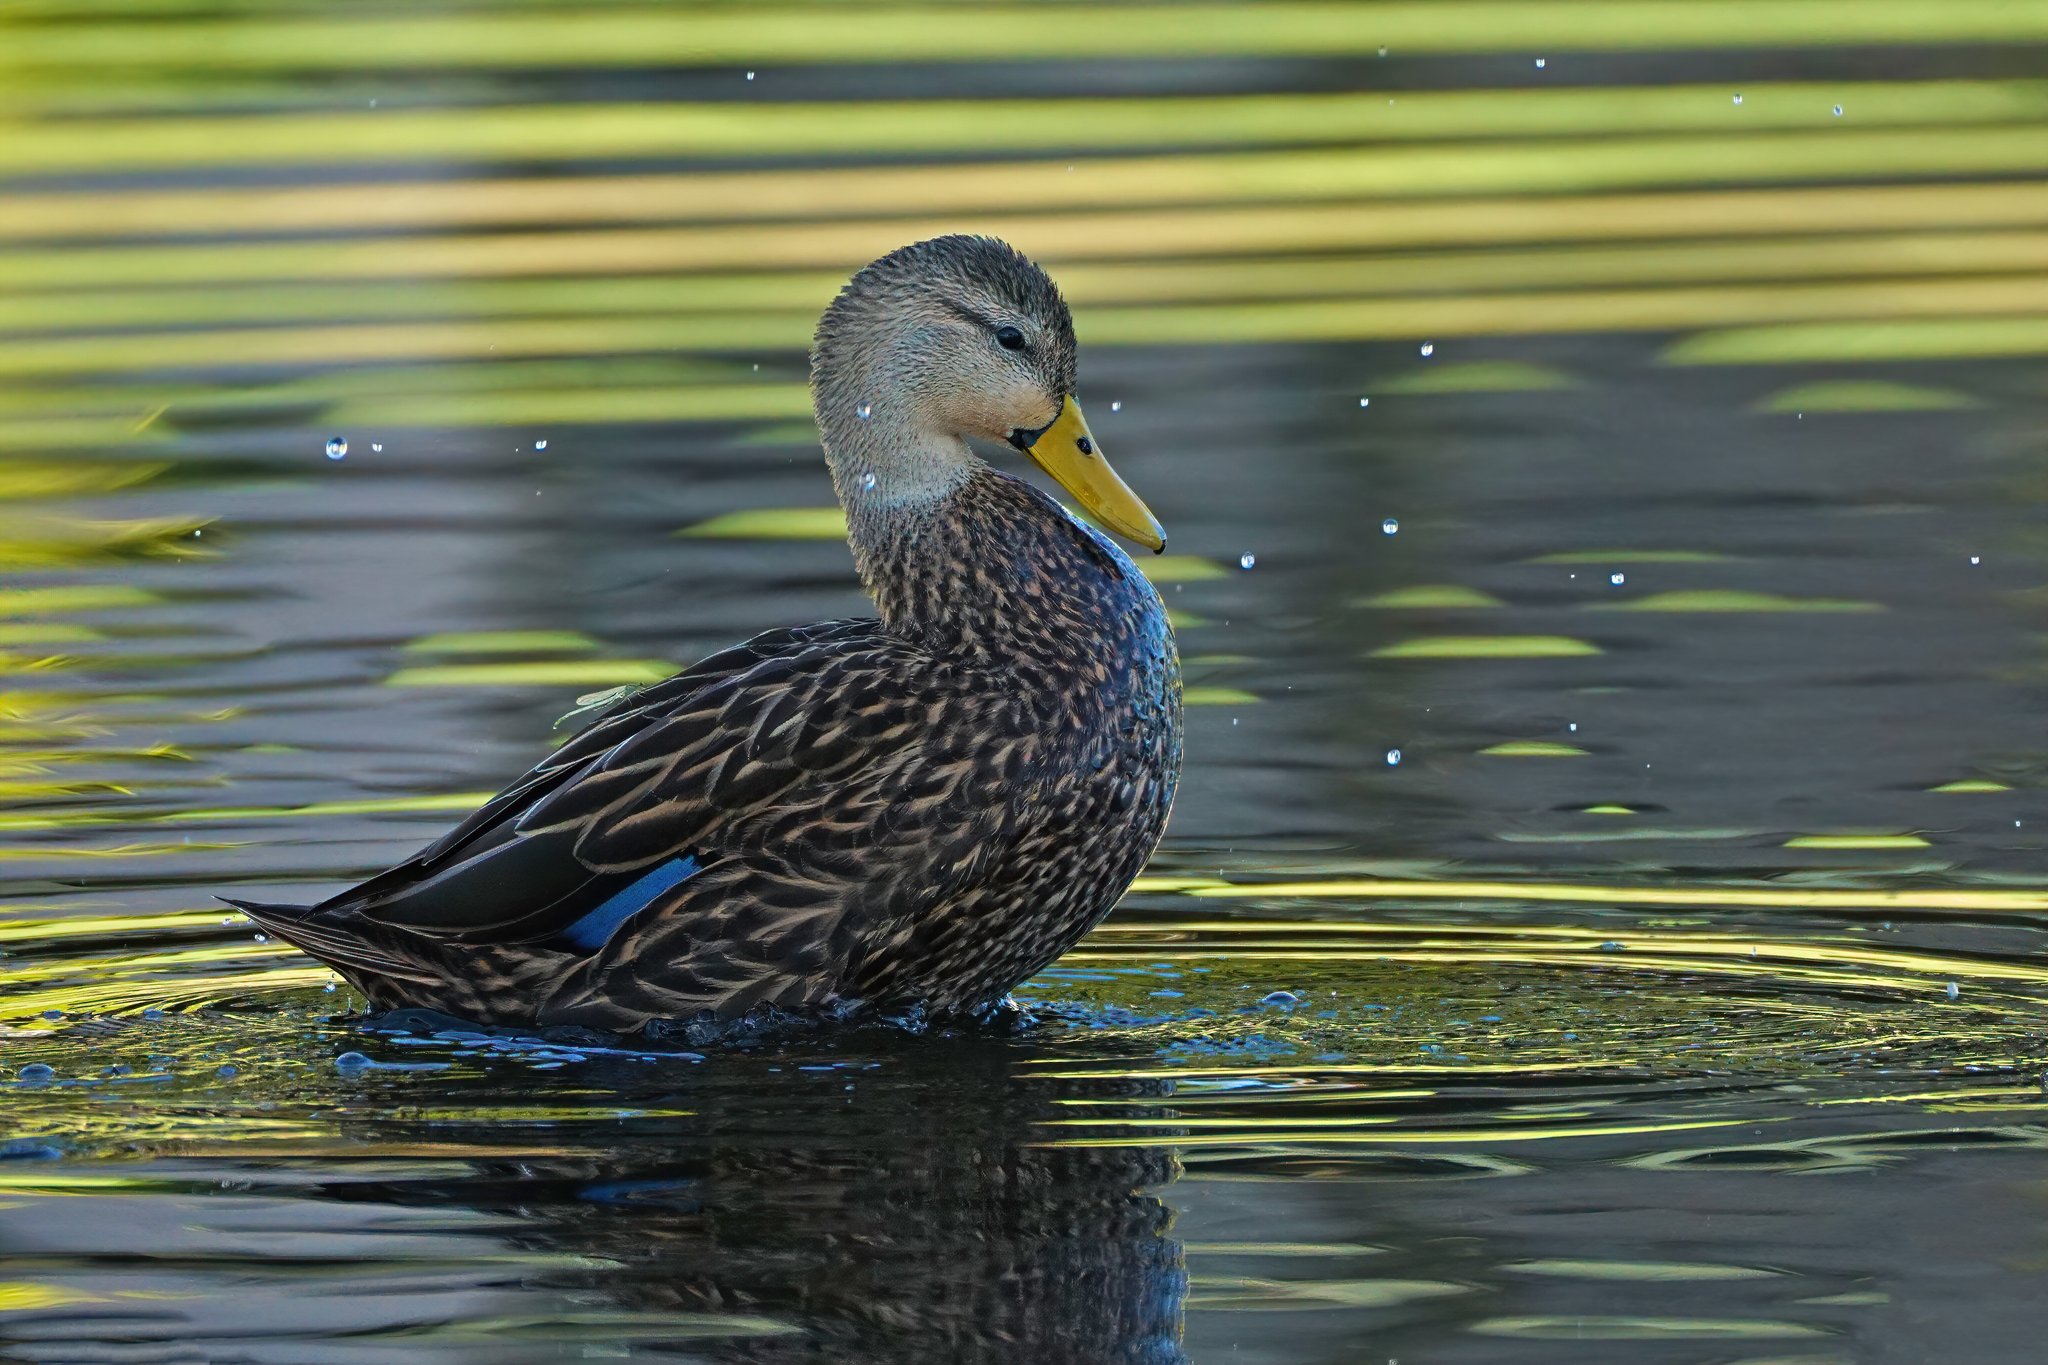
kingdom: Animalia
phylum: Chordata
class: Aves
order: Anseriformes
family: Anatidae
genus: Anas
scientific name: Anas fulvigula
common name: Mottled duck
